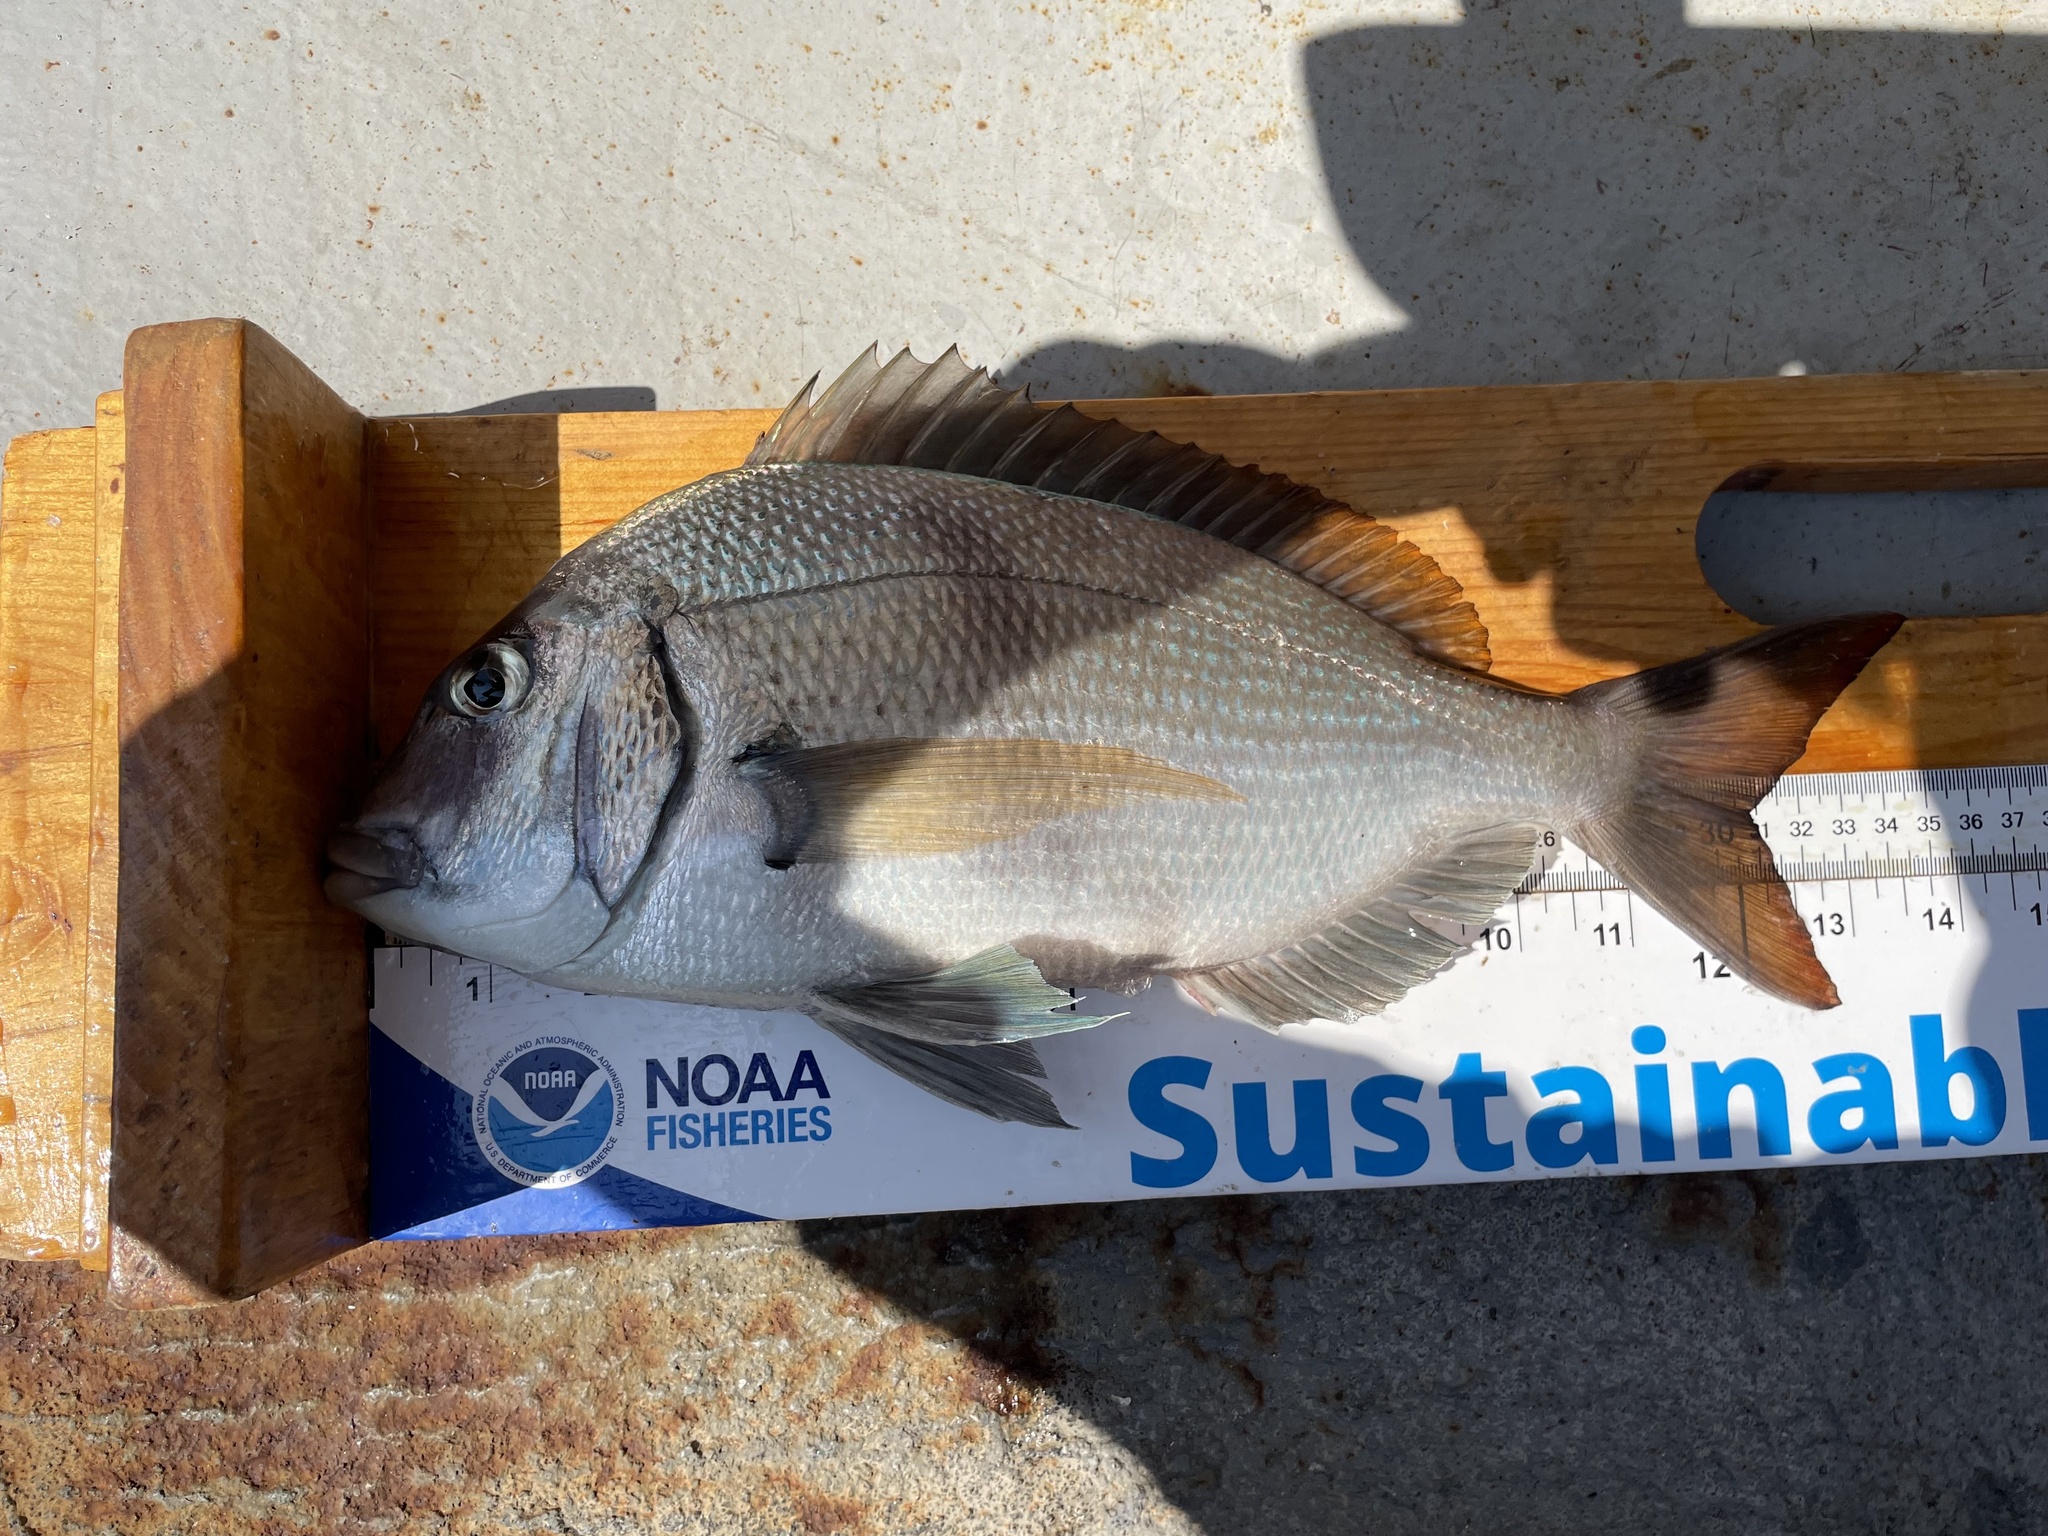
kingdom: Animalia
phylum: Chordata
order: Perciformes
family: Sparidae
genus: Stenotomus
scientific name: Stenotomus chrysops
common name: Scup
